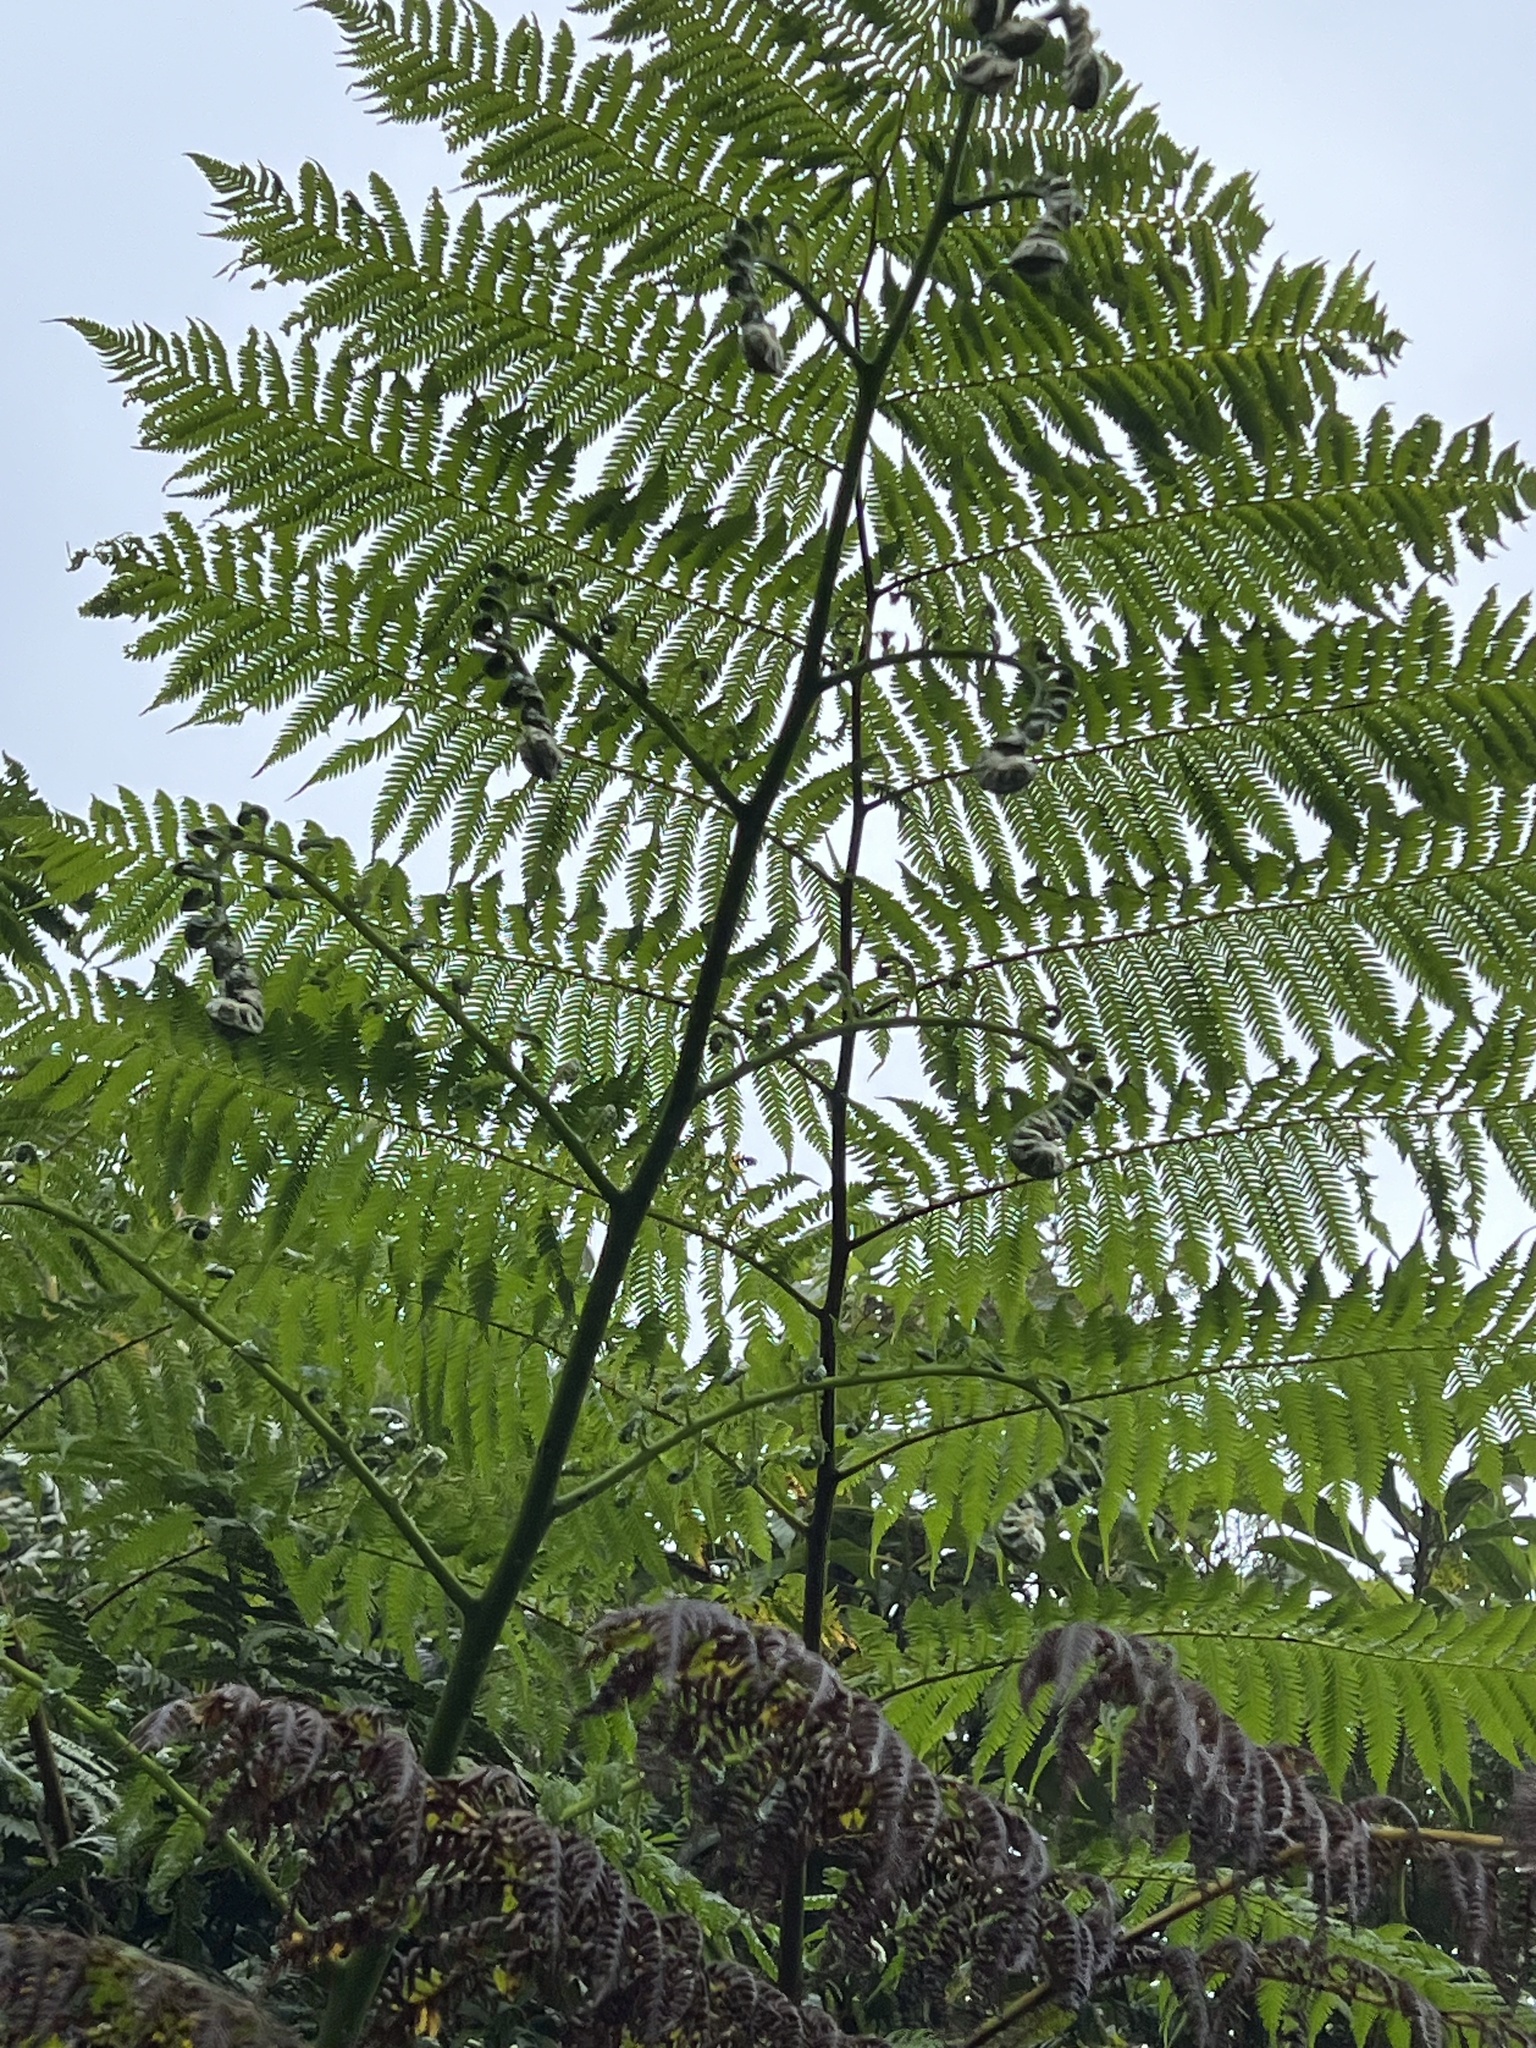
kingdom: Plantae
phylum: Tracheophyta
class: Polypodiopsida
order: Cyatheales
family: Cyatheaceae
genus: Cyathea
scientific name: Cyathea arborea
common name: West indian treefern
